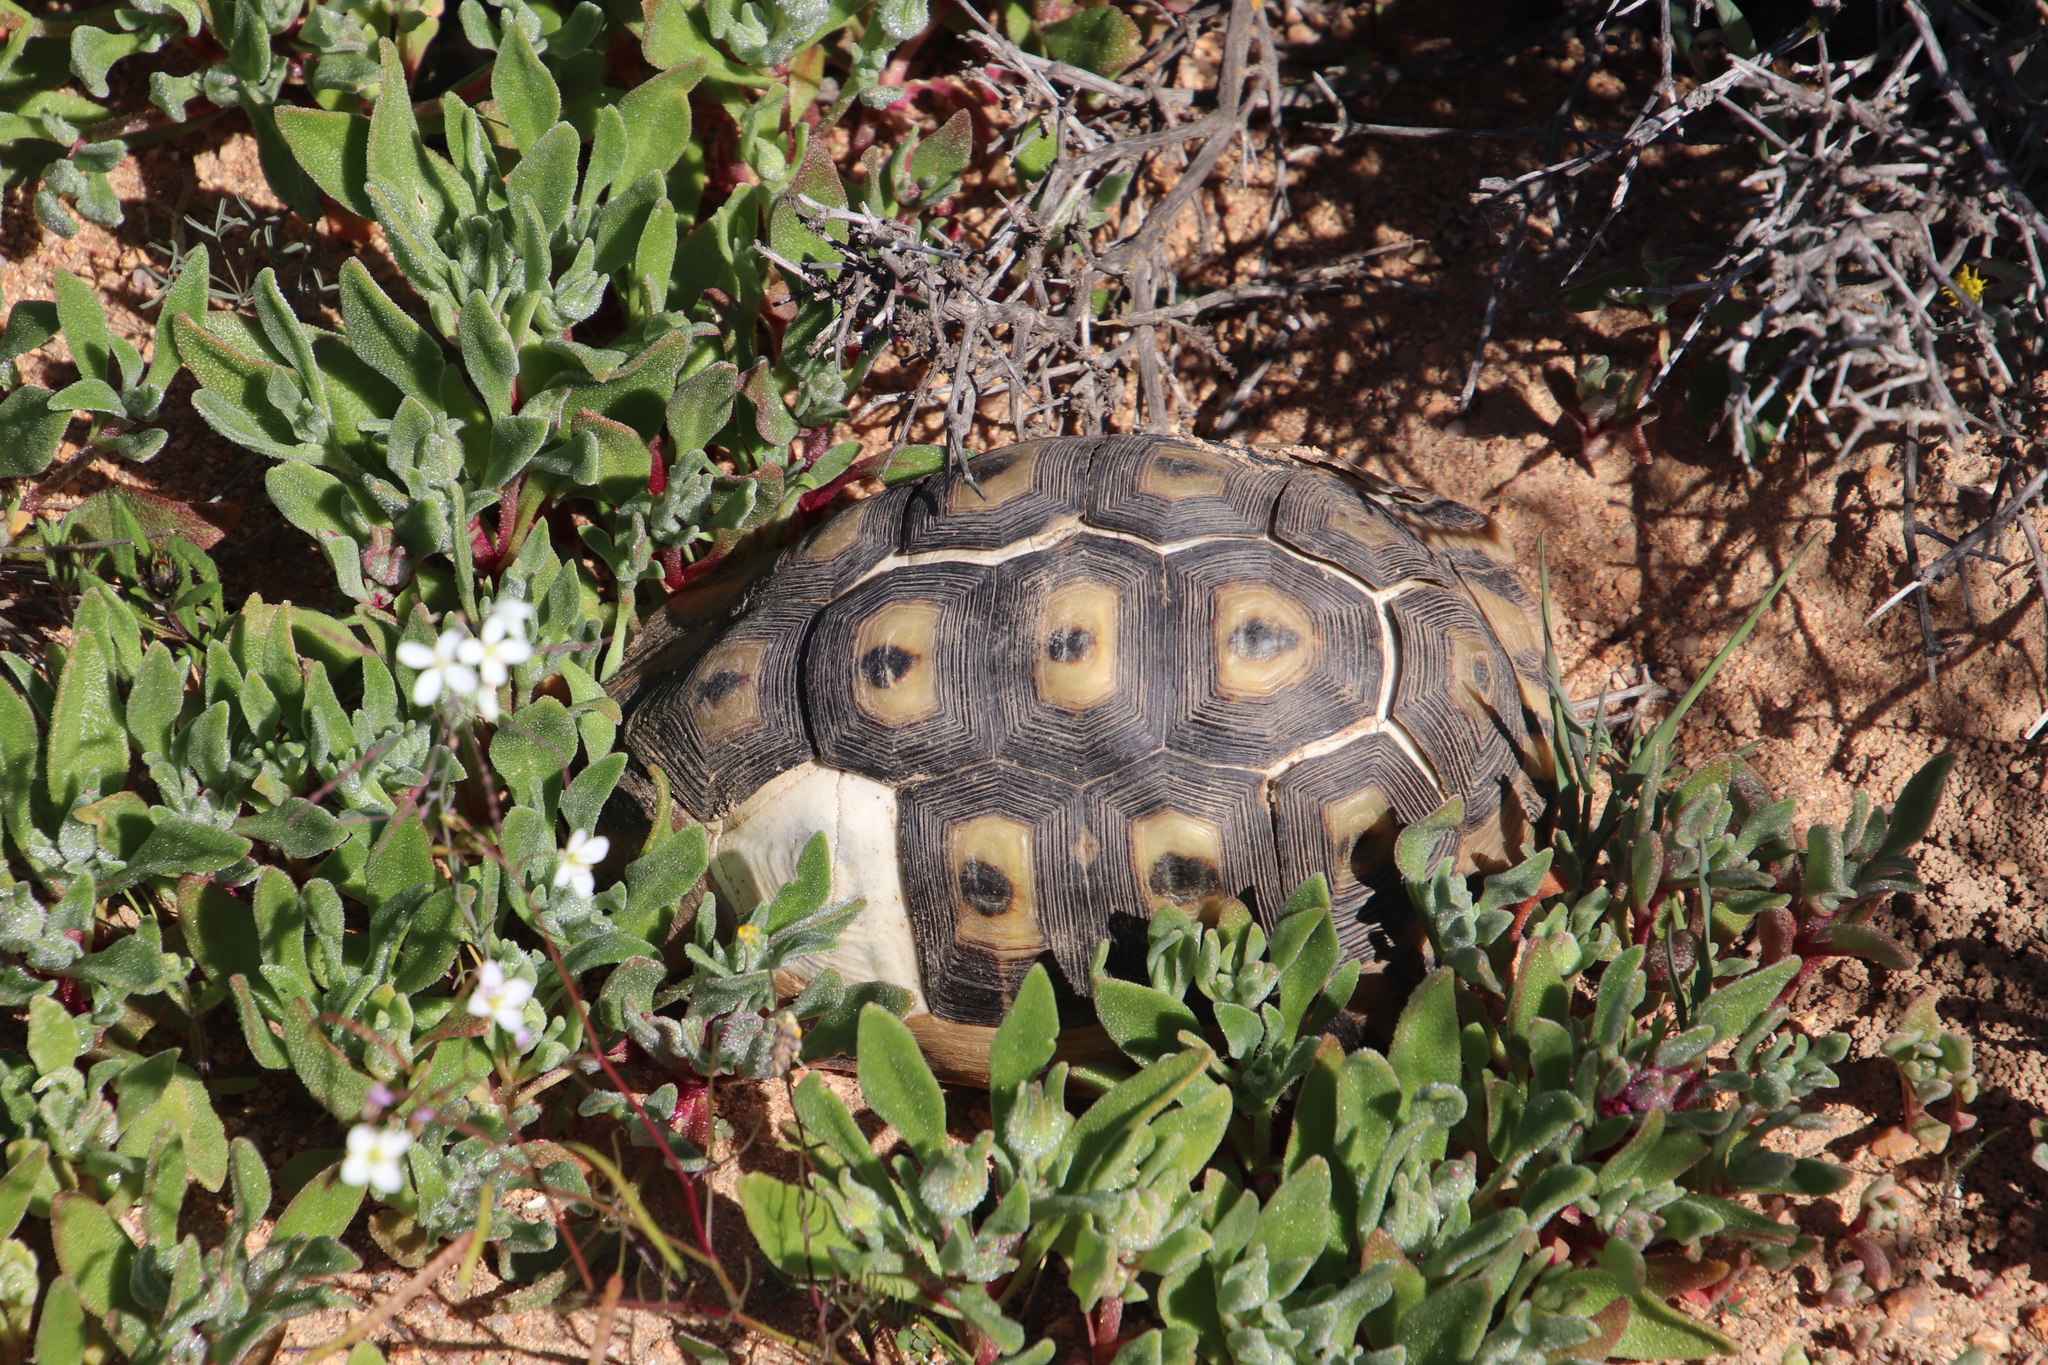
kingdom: Animalia
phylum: Chordata
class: Testudines
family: Testudinidae
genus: Chersina
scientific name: Chersina angulata
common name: South african bowsprit tortoise
